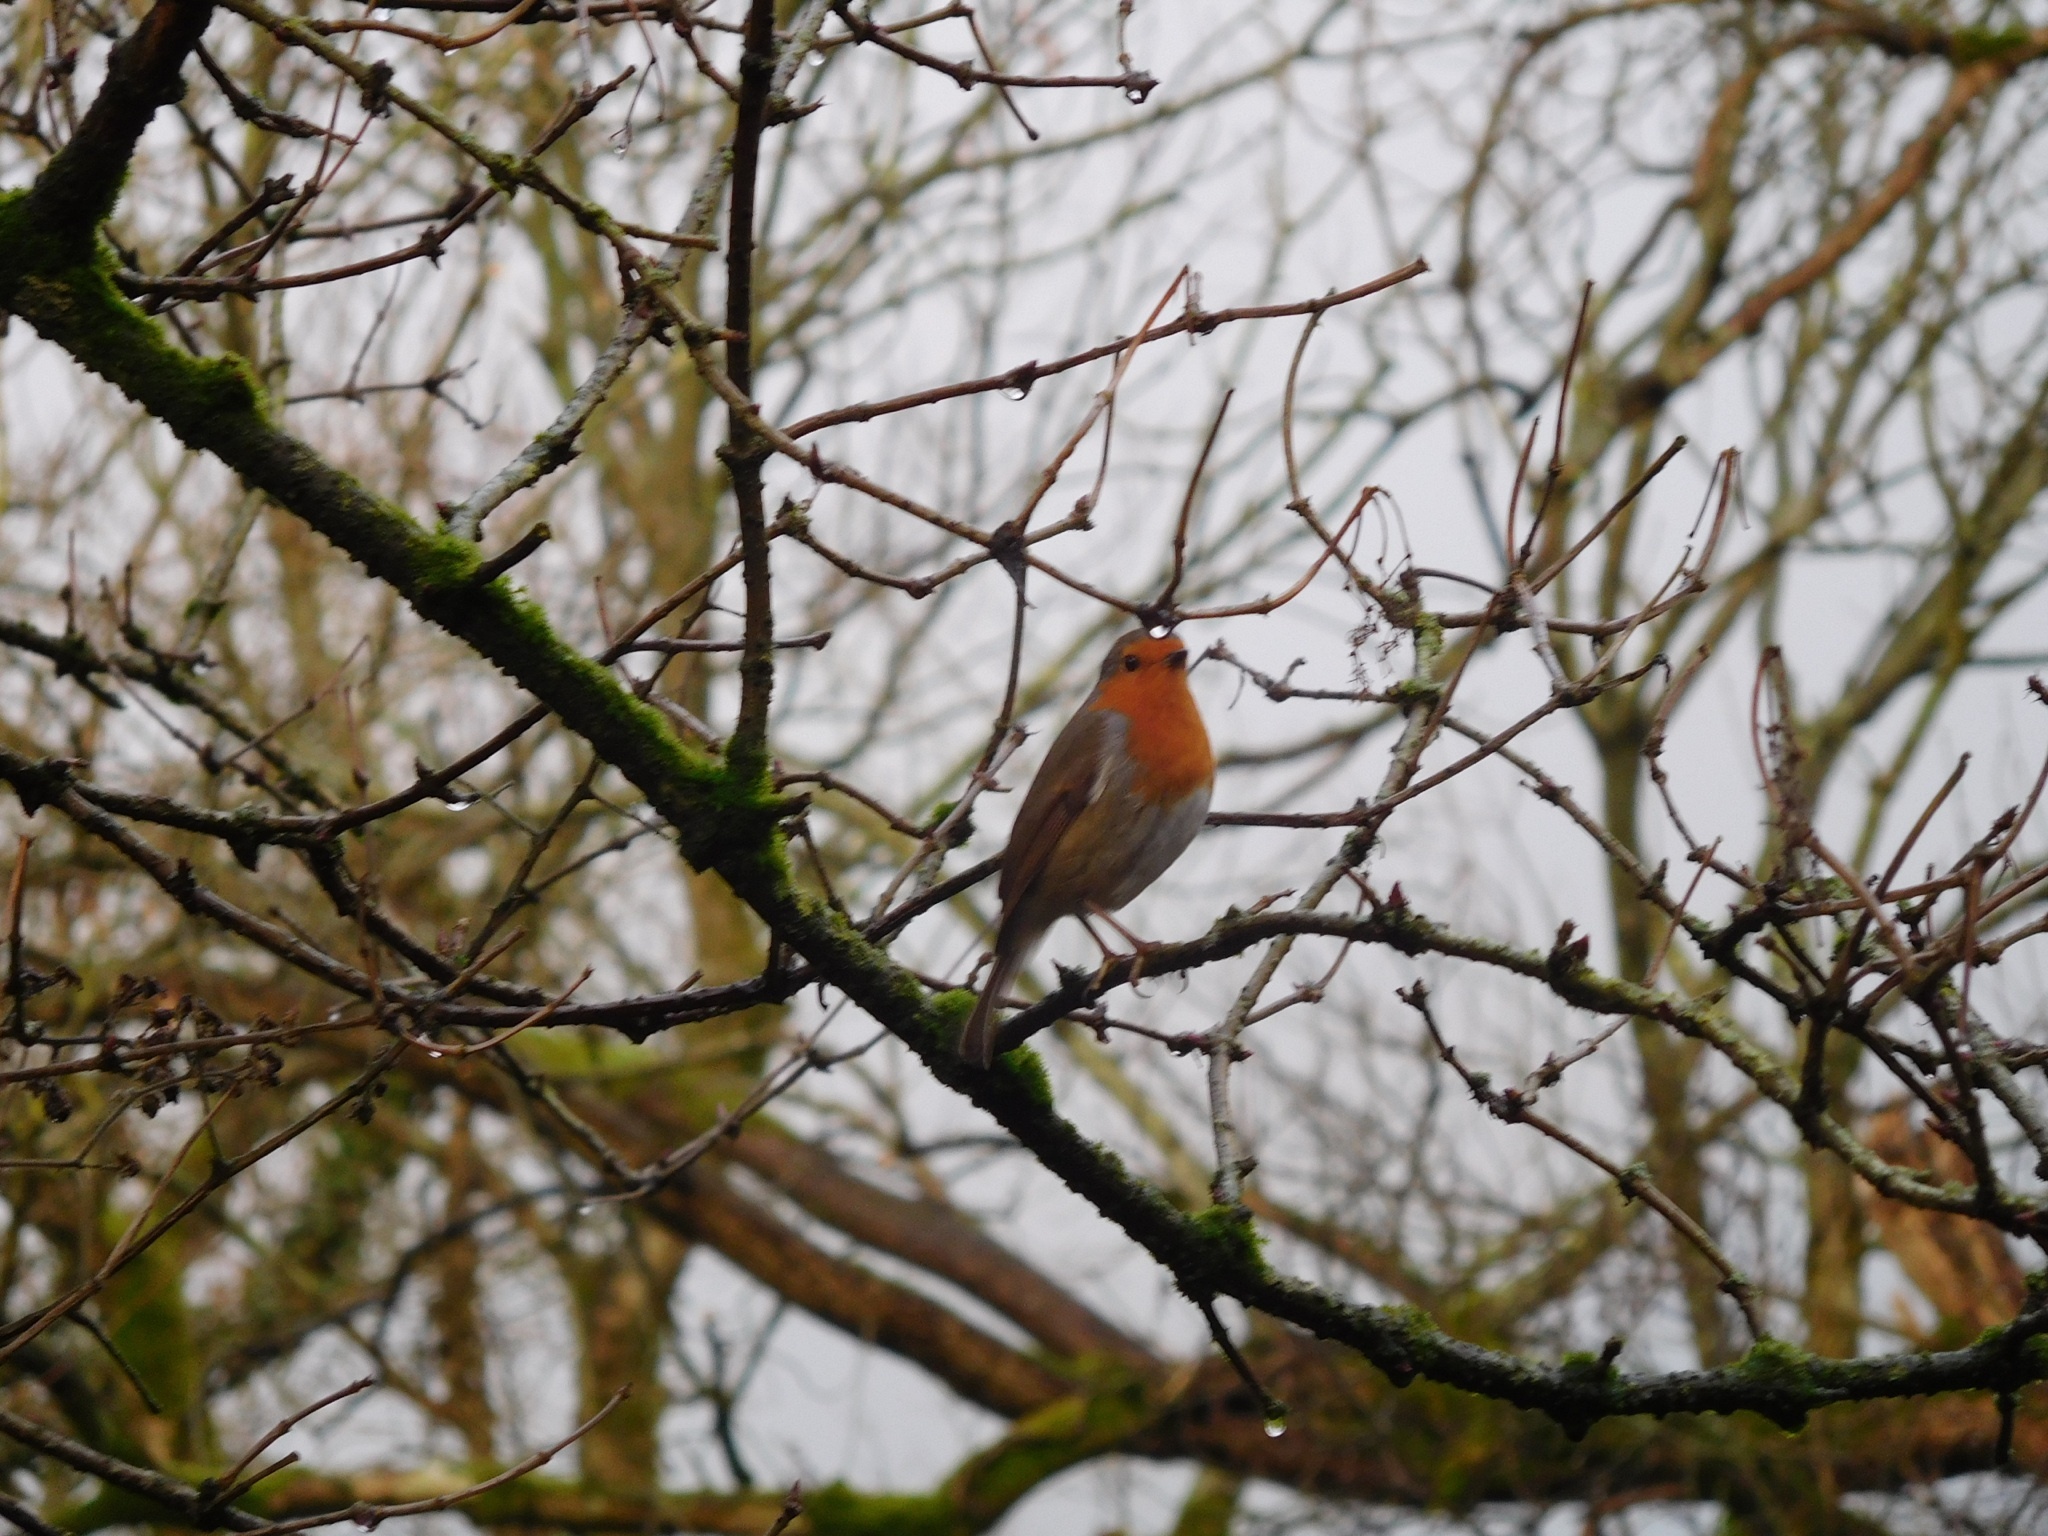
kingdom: Animalia
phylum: Chordata
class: Aves
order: Passeriformes
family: Muscicapidae
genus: Erithacus
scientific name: Erithacus rubecula
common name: European robin
